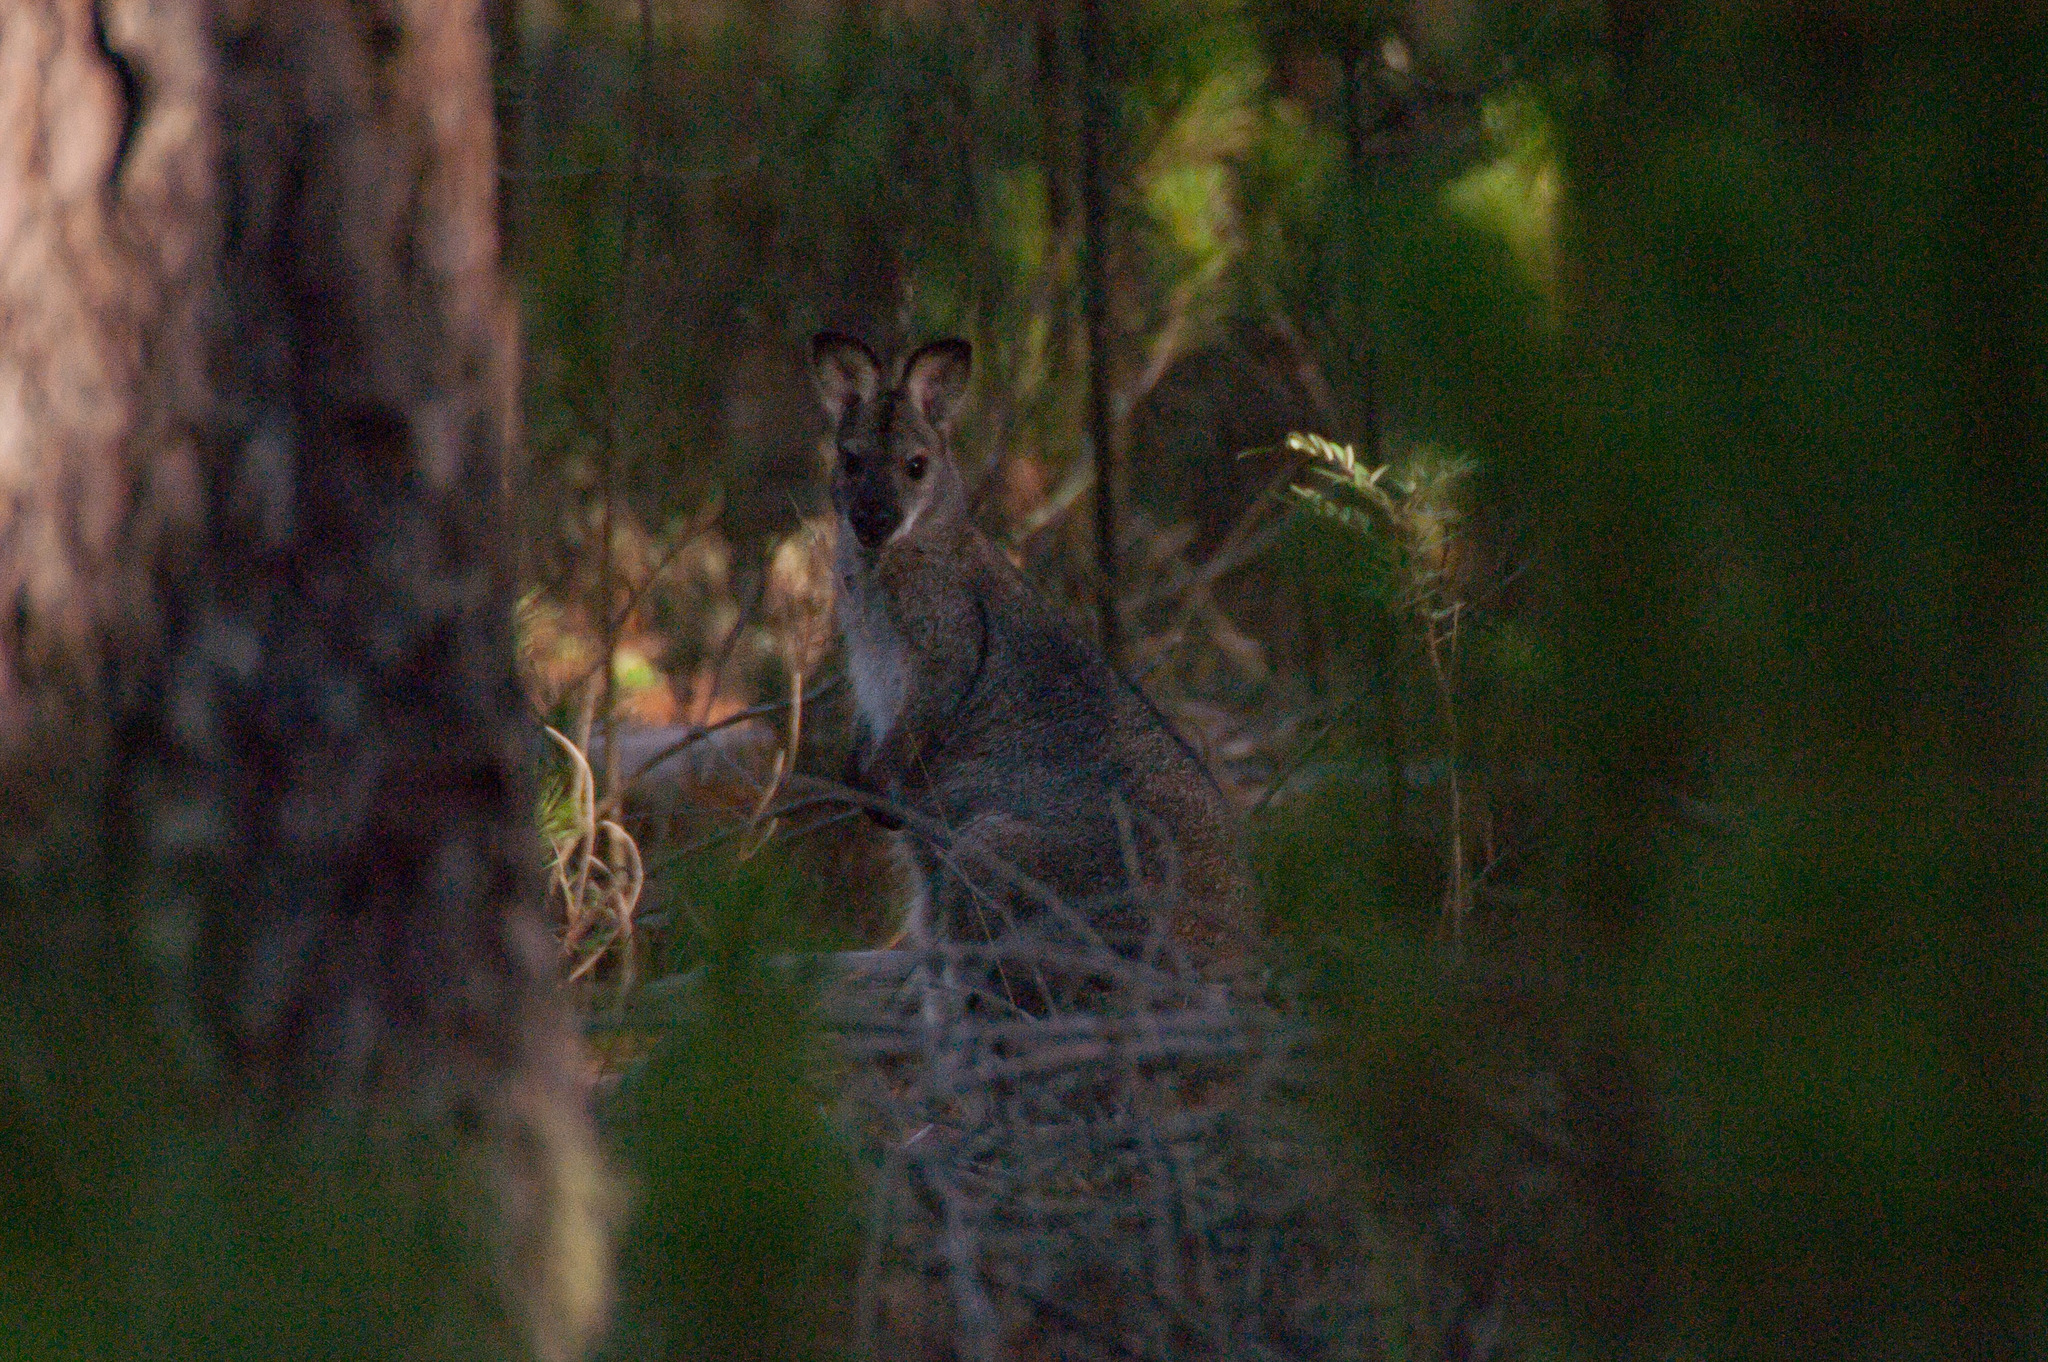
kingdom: Animalia
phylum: Chordata
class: Mammalia
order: Diprotodontia
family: Macropodidae
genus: Notamacropus
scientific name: Notamacropus rufogriseus
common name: Red-necked wallaby
